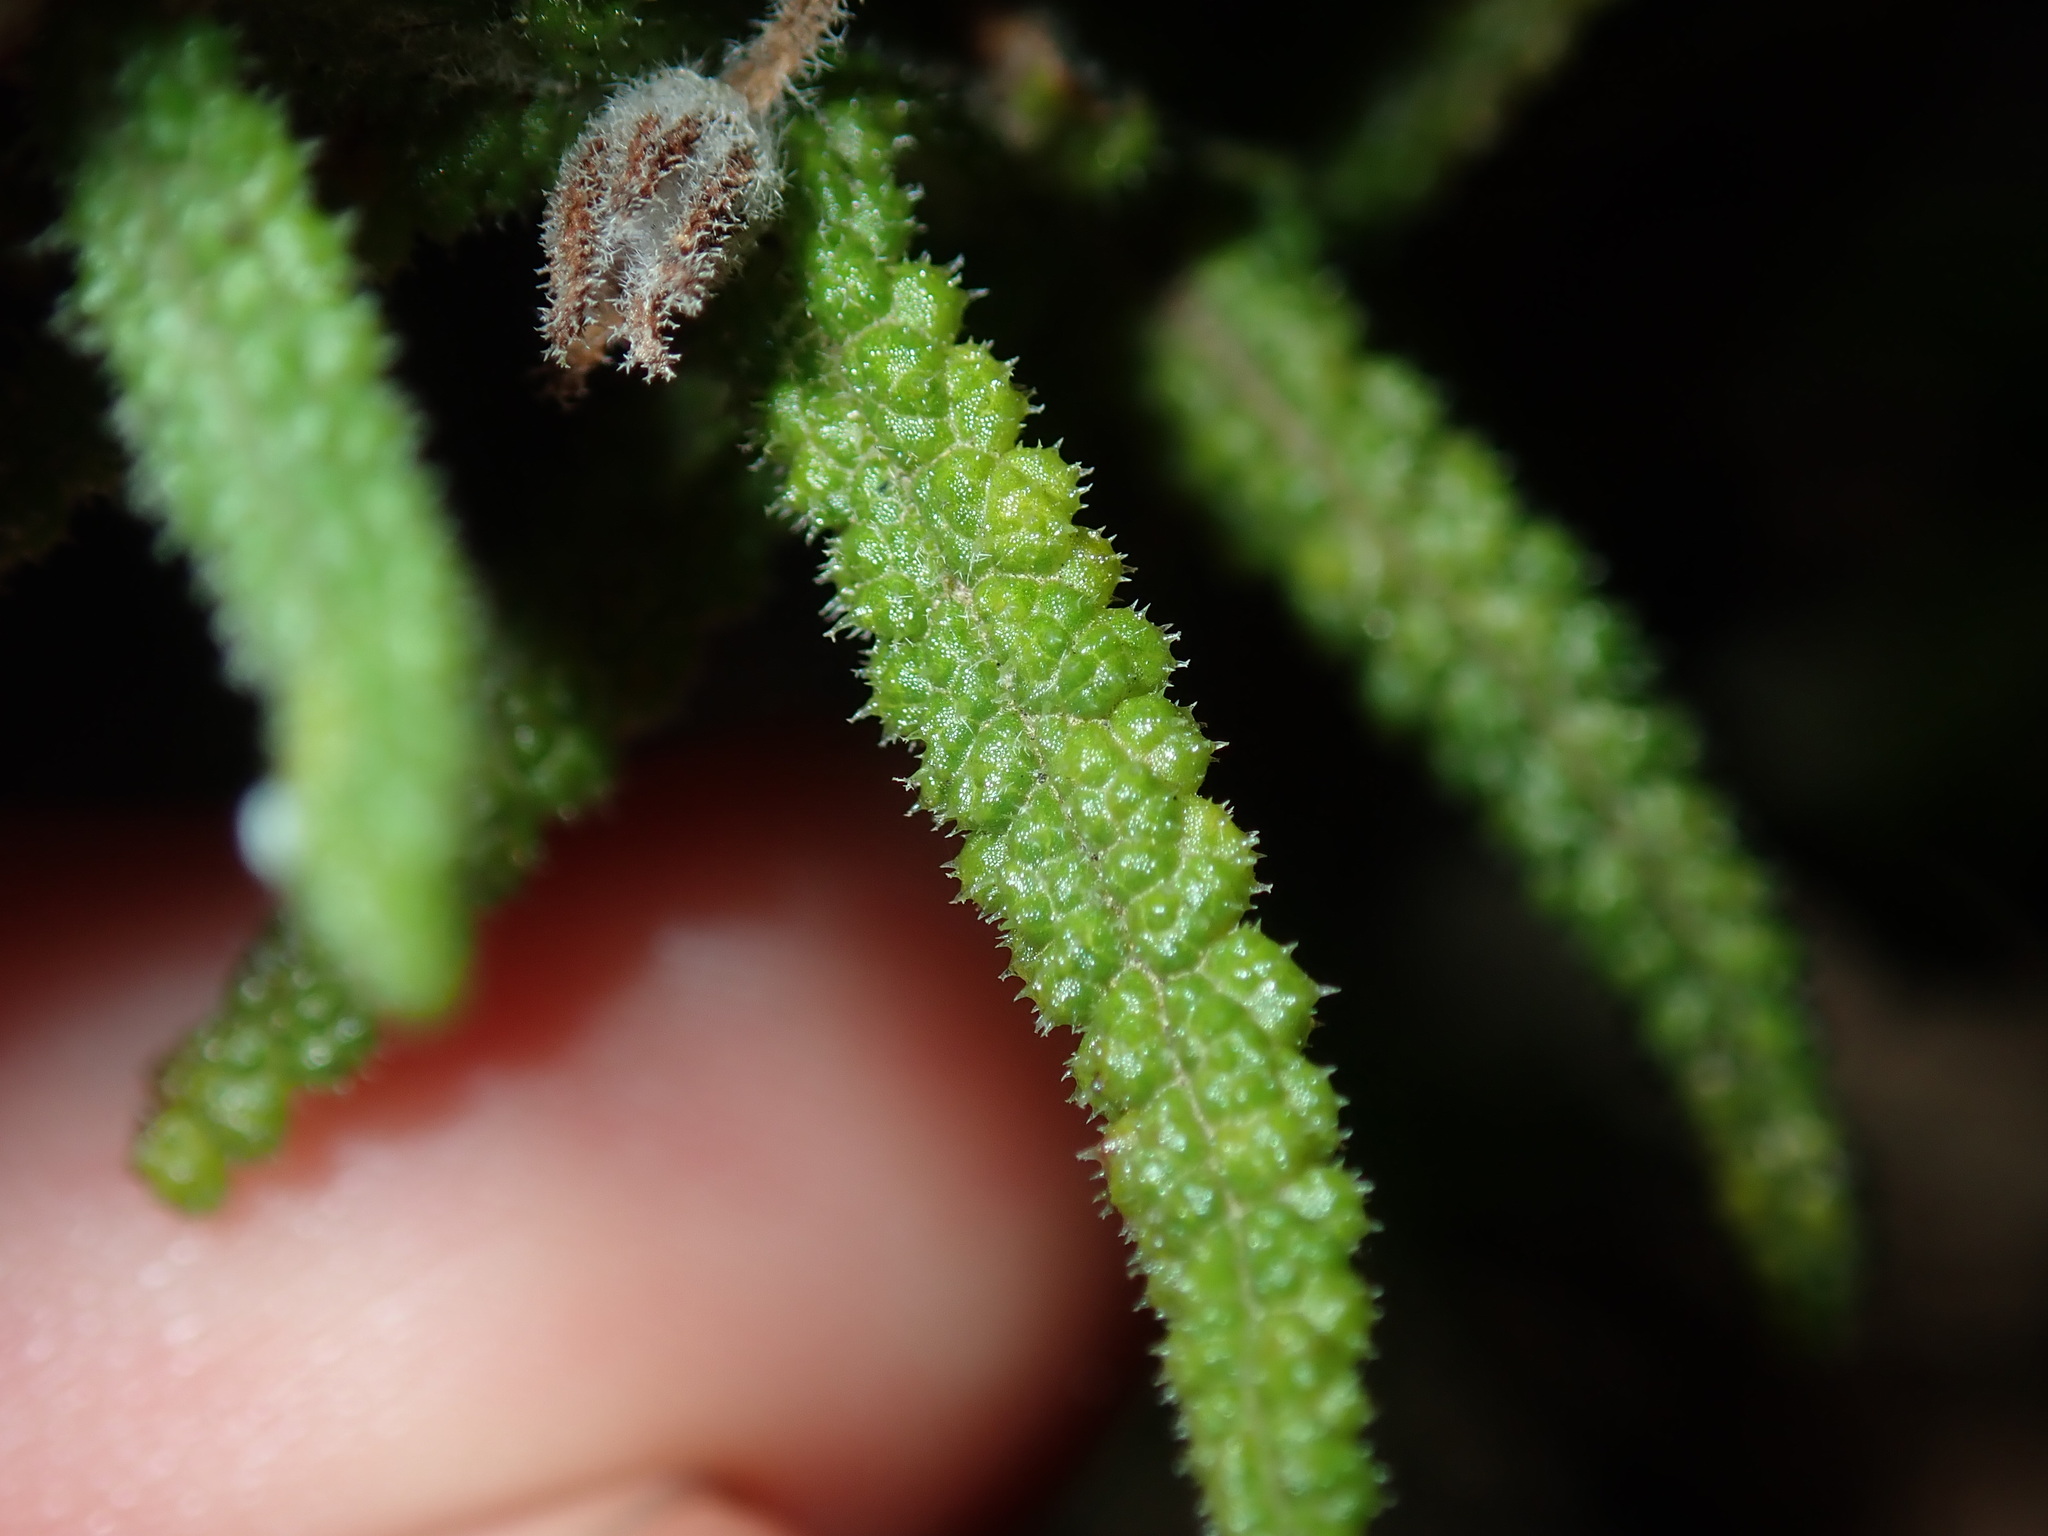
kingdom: Plantae
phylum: Tracheophyta
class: Magnoliopsida
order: Lamiales
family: Lamiaceae
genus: Chloanthes
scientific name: Chloanthes stoechadis
